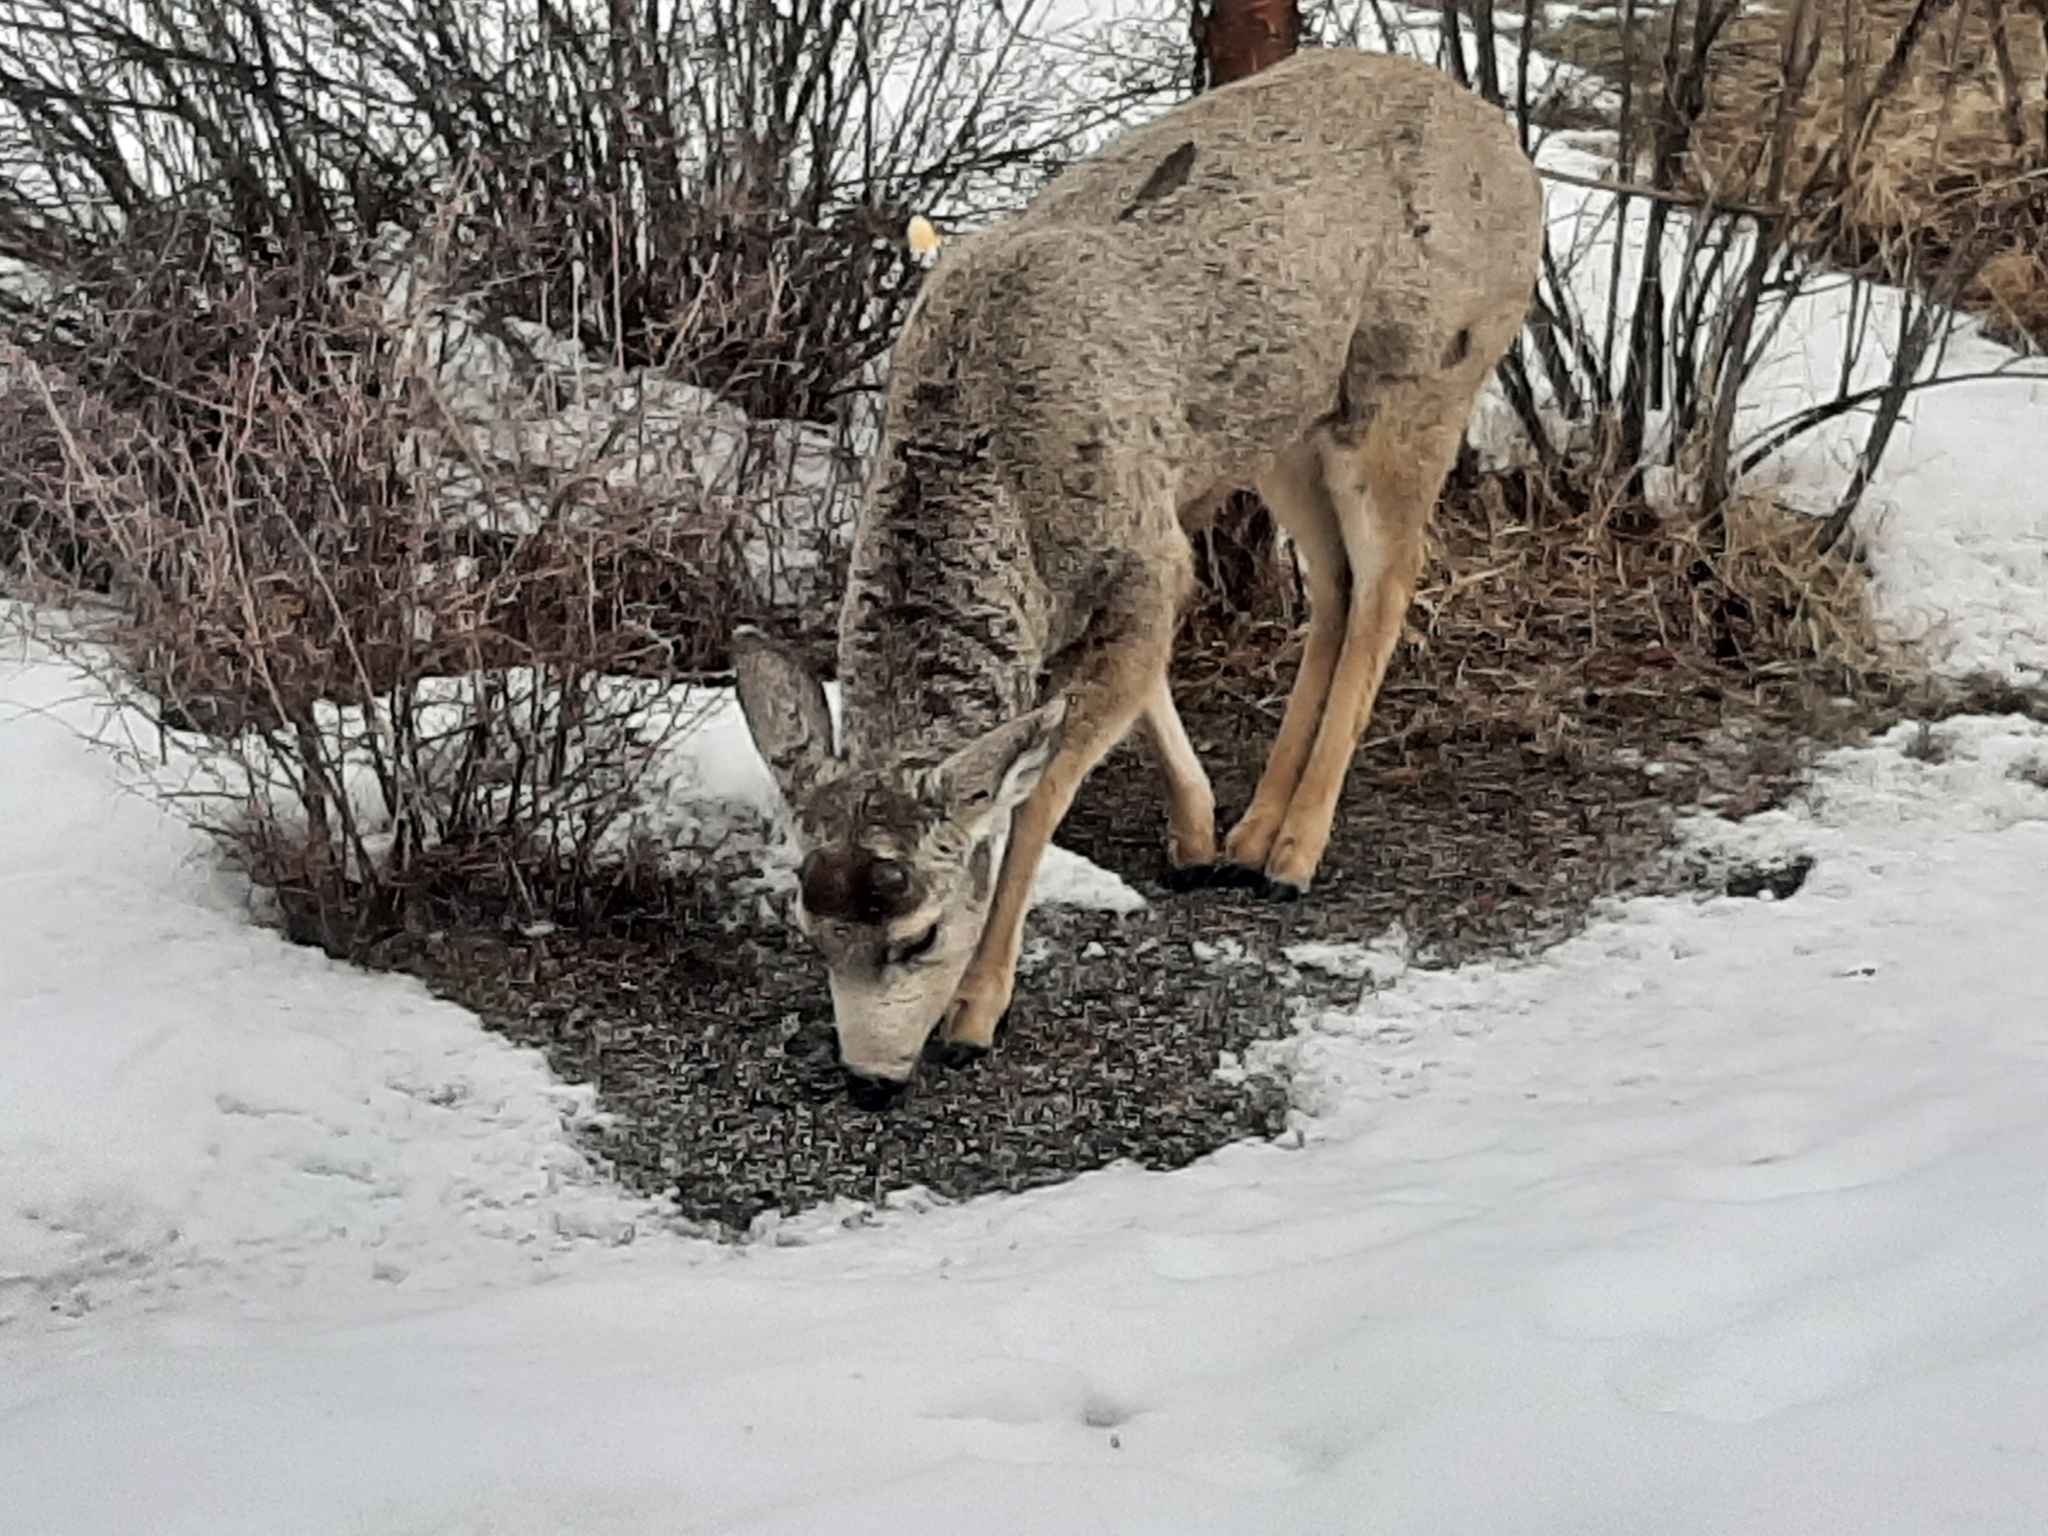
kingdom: Animalia
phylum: Chordata
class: Mammalia
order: Artiodactyla
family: Cervidae
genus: Odocoileus
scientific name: Odocoileus hemionus
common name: Mule deer
